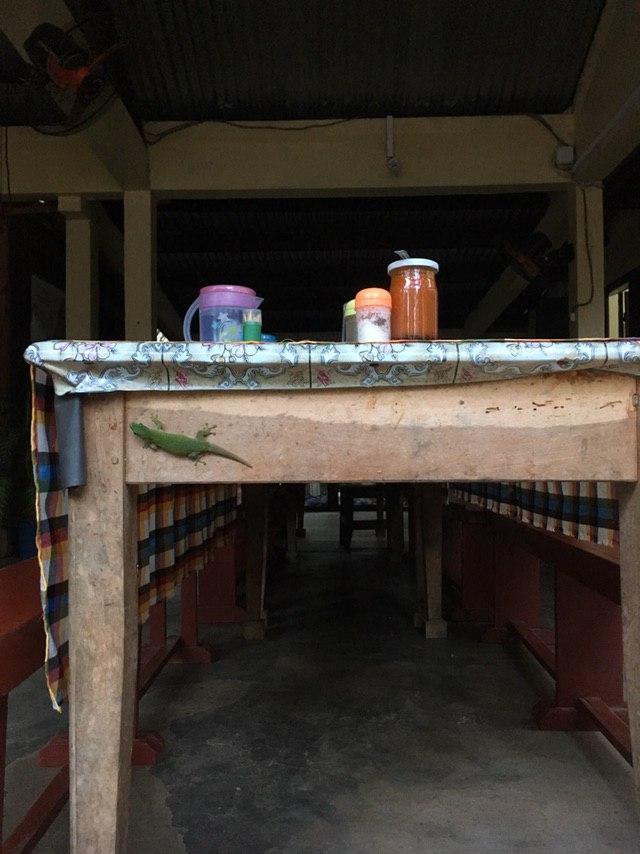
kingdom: Animalia
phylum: Chordata
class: Squamata
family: Gekkonidae
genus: Phelsuma
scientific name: Phelsuma kochi
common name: Madagascar day gecko
